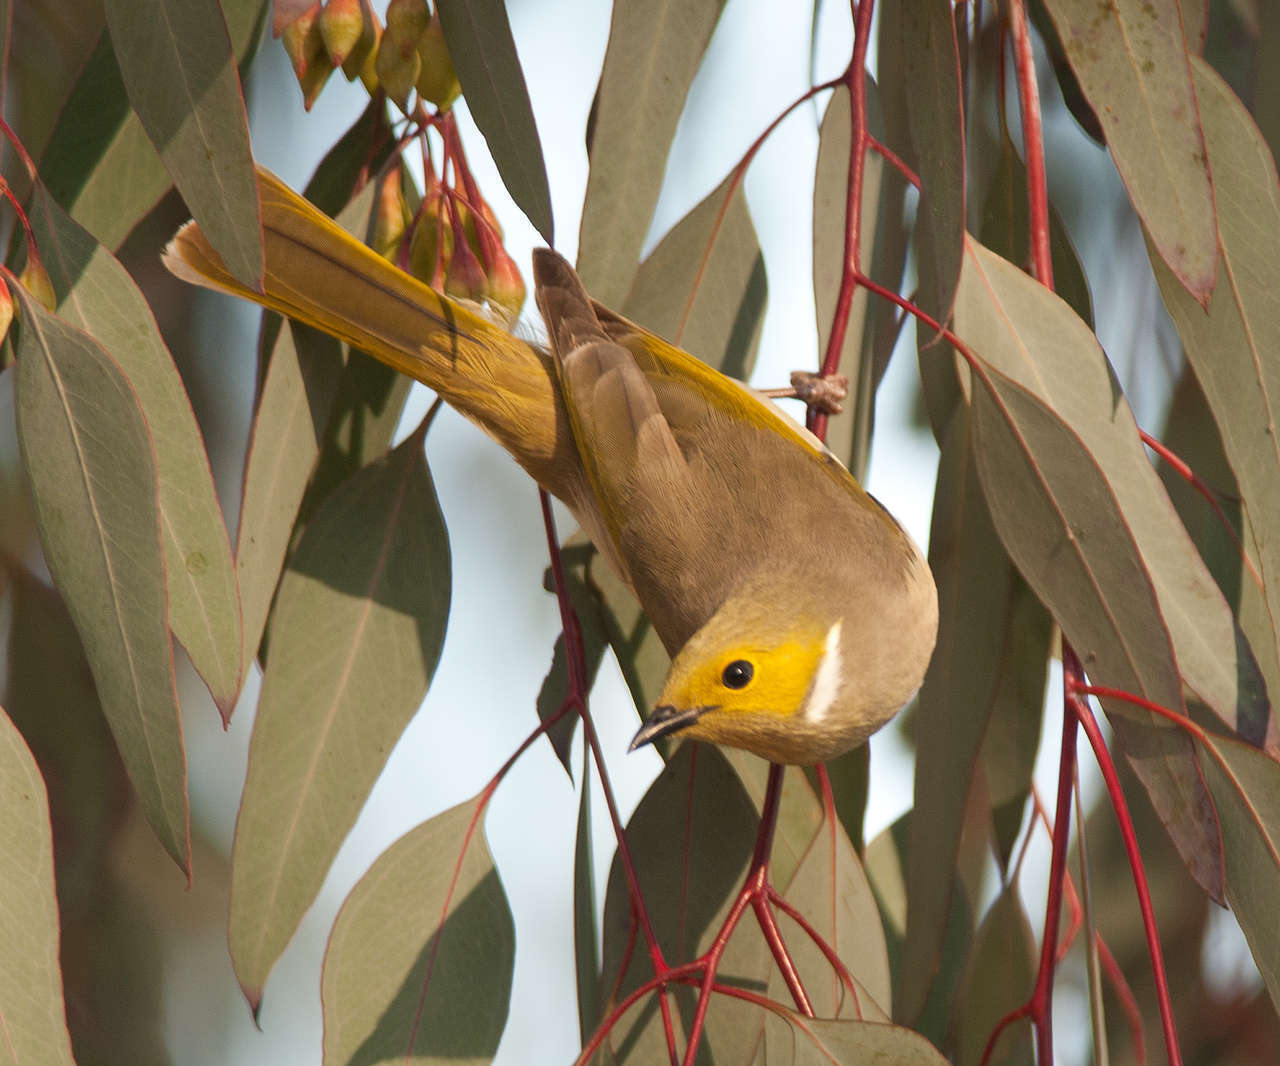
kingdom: Animalia
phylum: Chordata
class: Aves
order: Passeriformes
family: Meliphagidae
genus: Ptilotula
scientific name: Ptilotula penicillata
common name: White-plumed honeyeater
